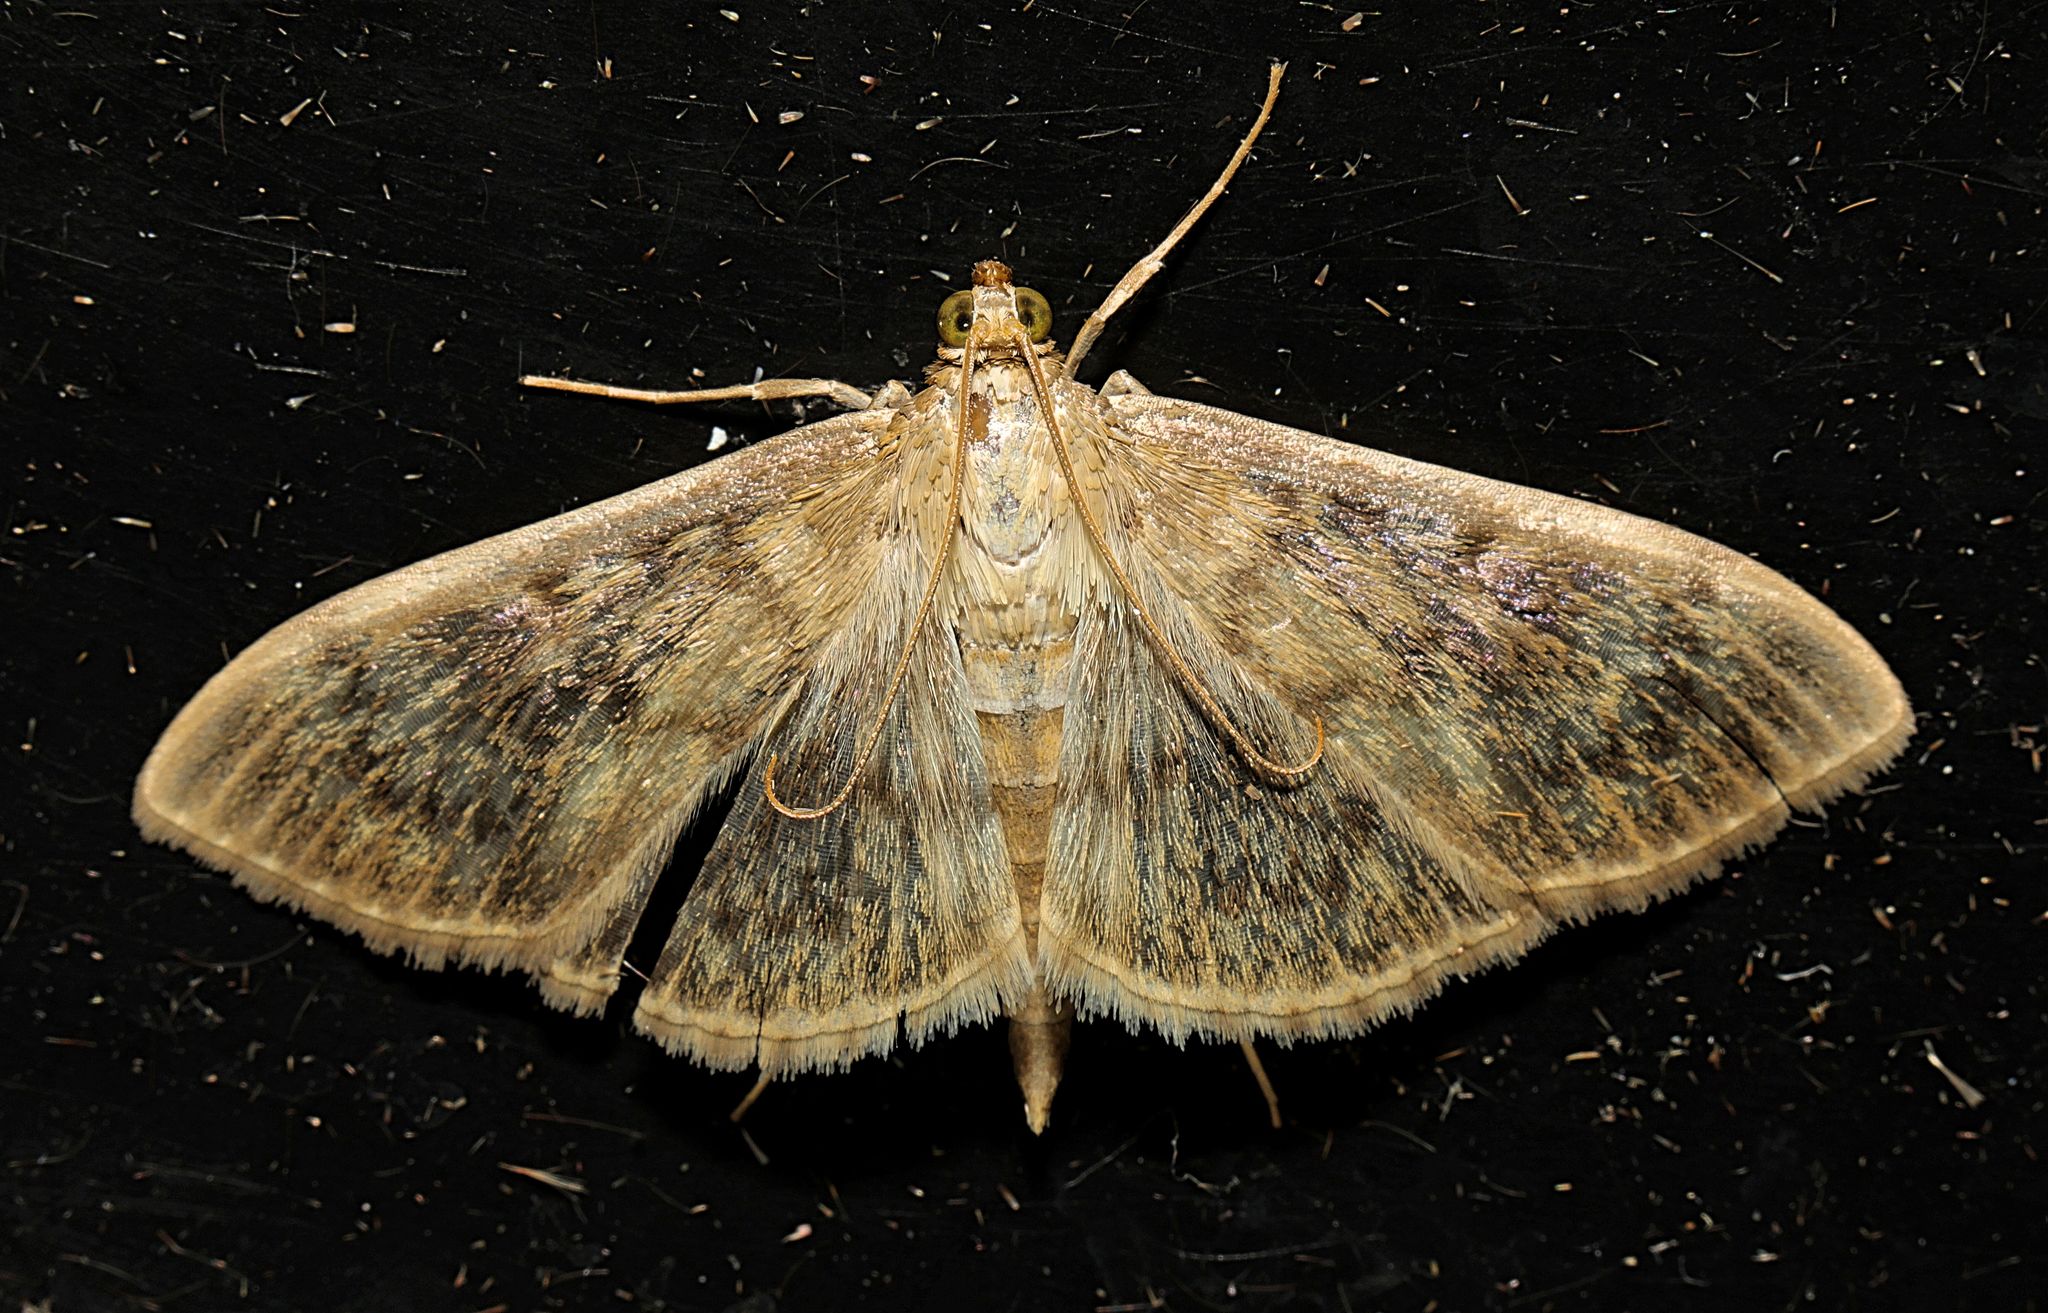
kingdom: Animalia
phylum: Arthropoda
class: Insecta
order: Lepidoptera
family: Crambidae
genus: Patania
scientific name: Patania ruralis
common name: Mother of pearl
